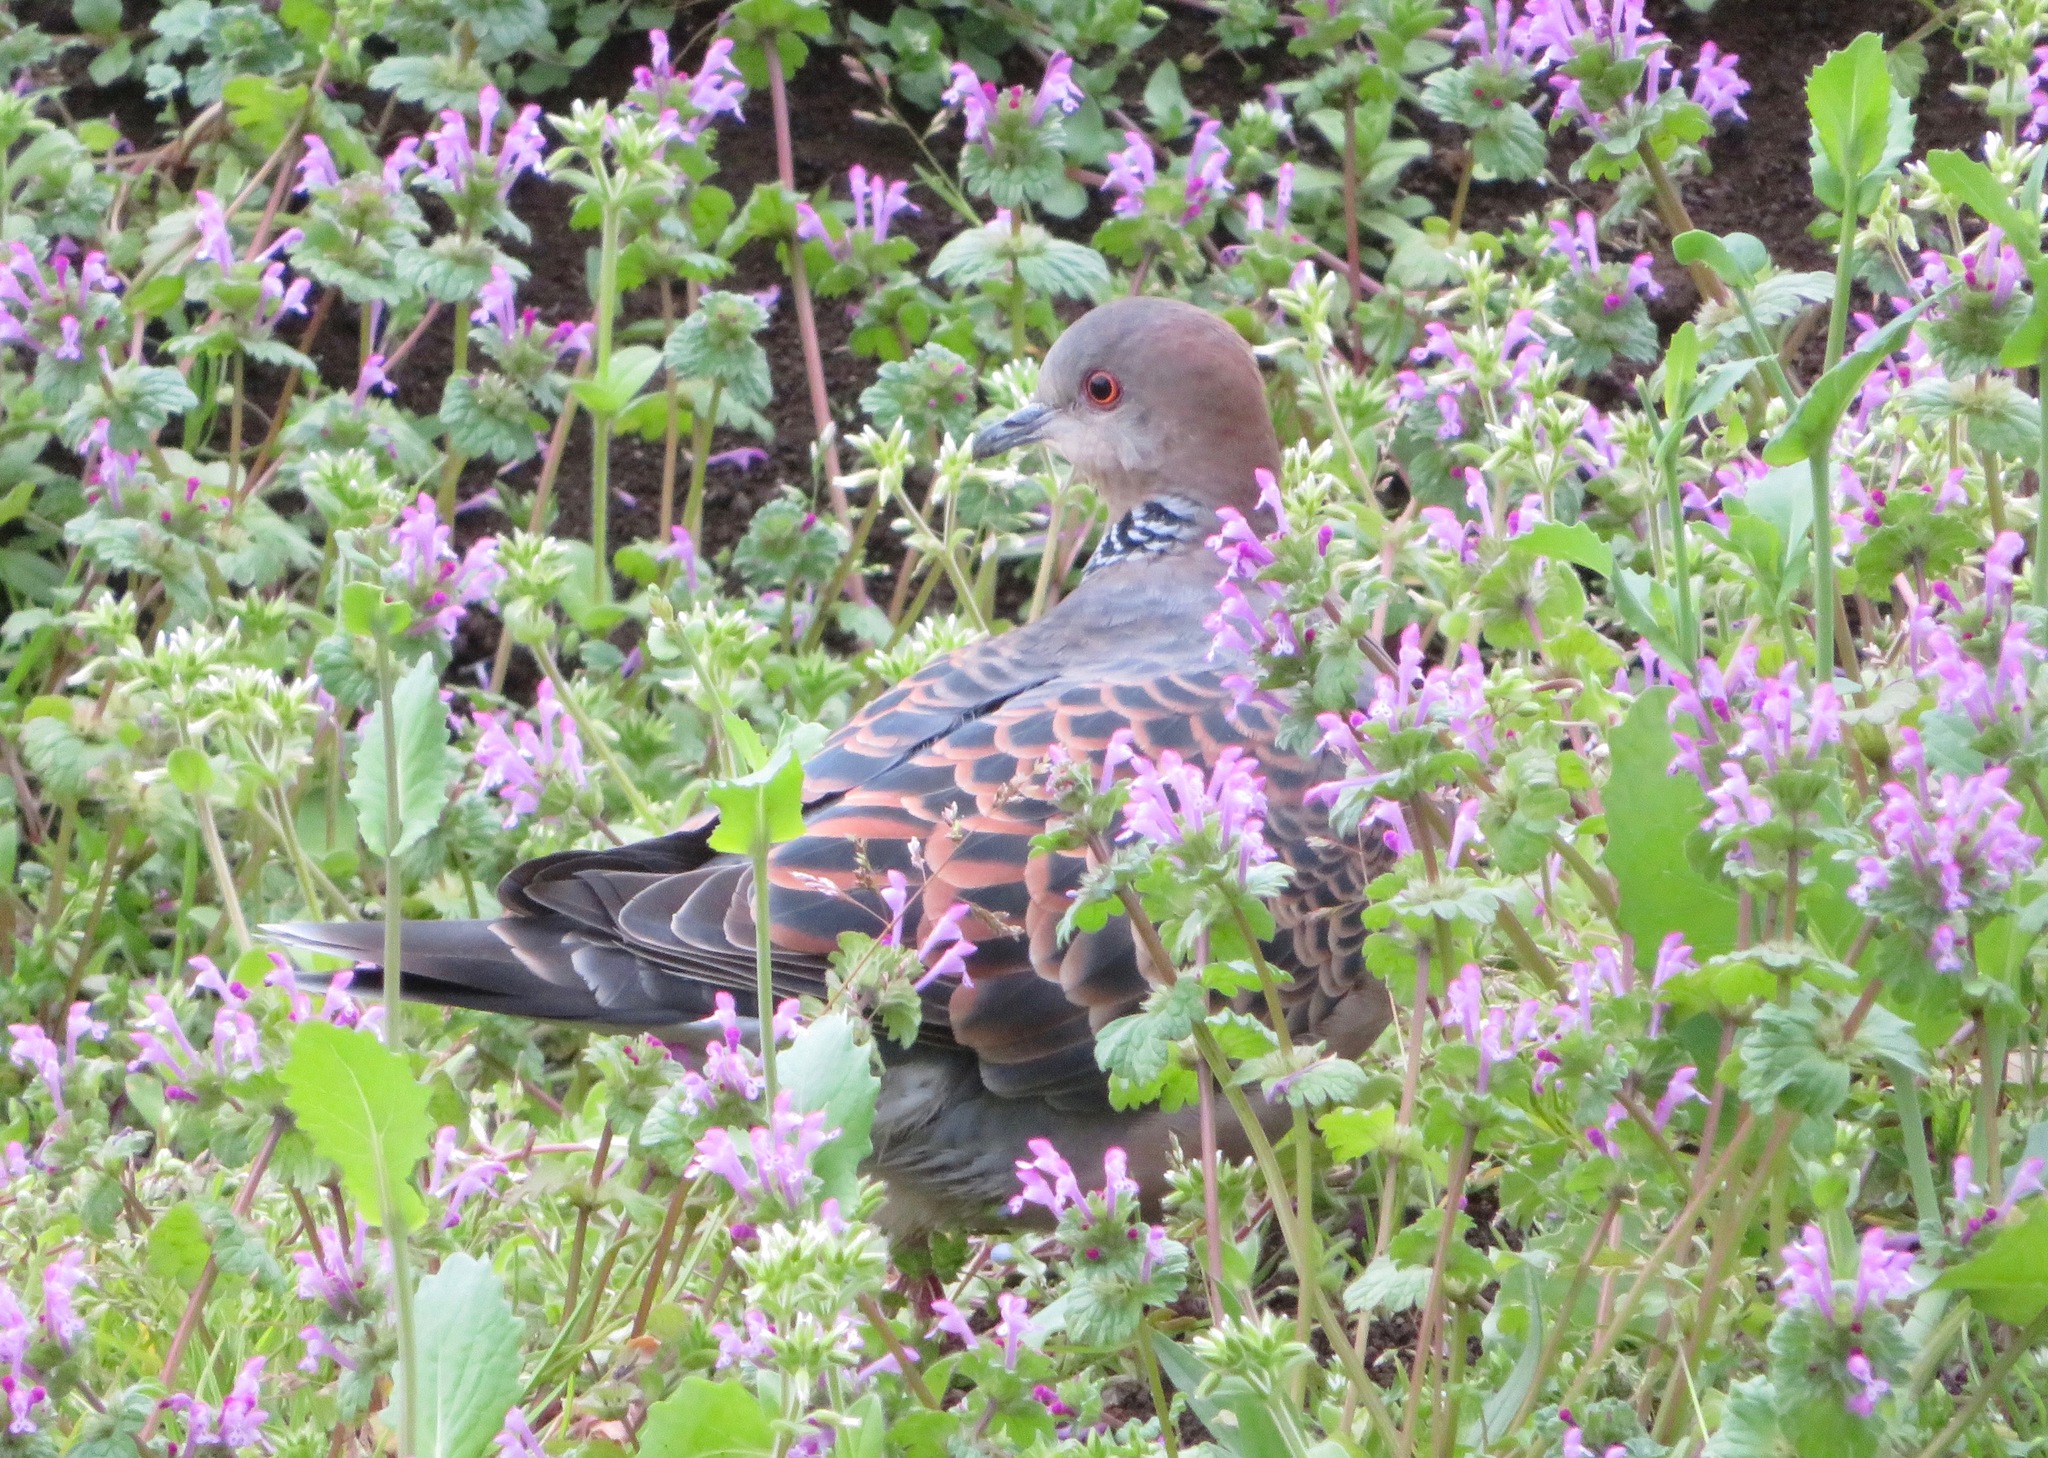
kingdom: Animalia
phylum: Chordata
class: Aves
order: Columbiformes
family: Columbidae
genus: Streptopelia
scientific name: Streptopelia orientalis
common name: Oriental turtle dove
